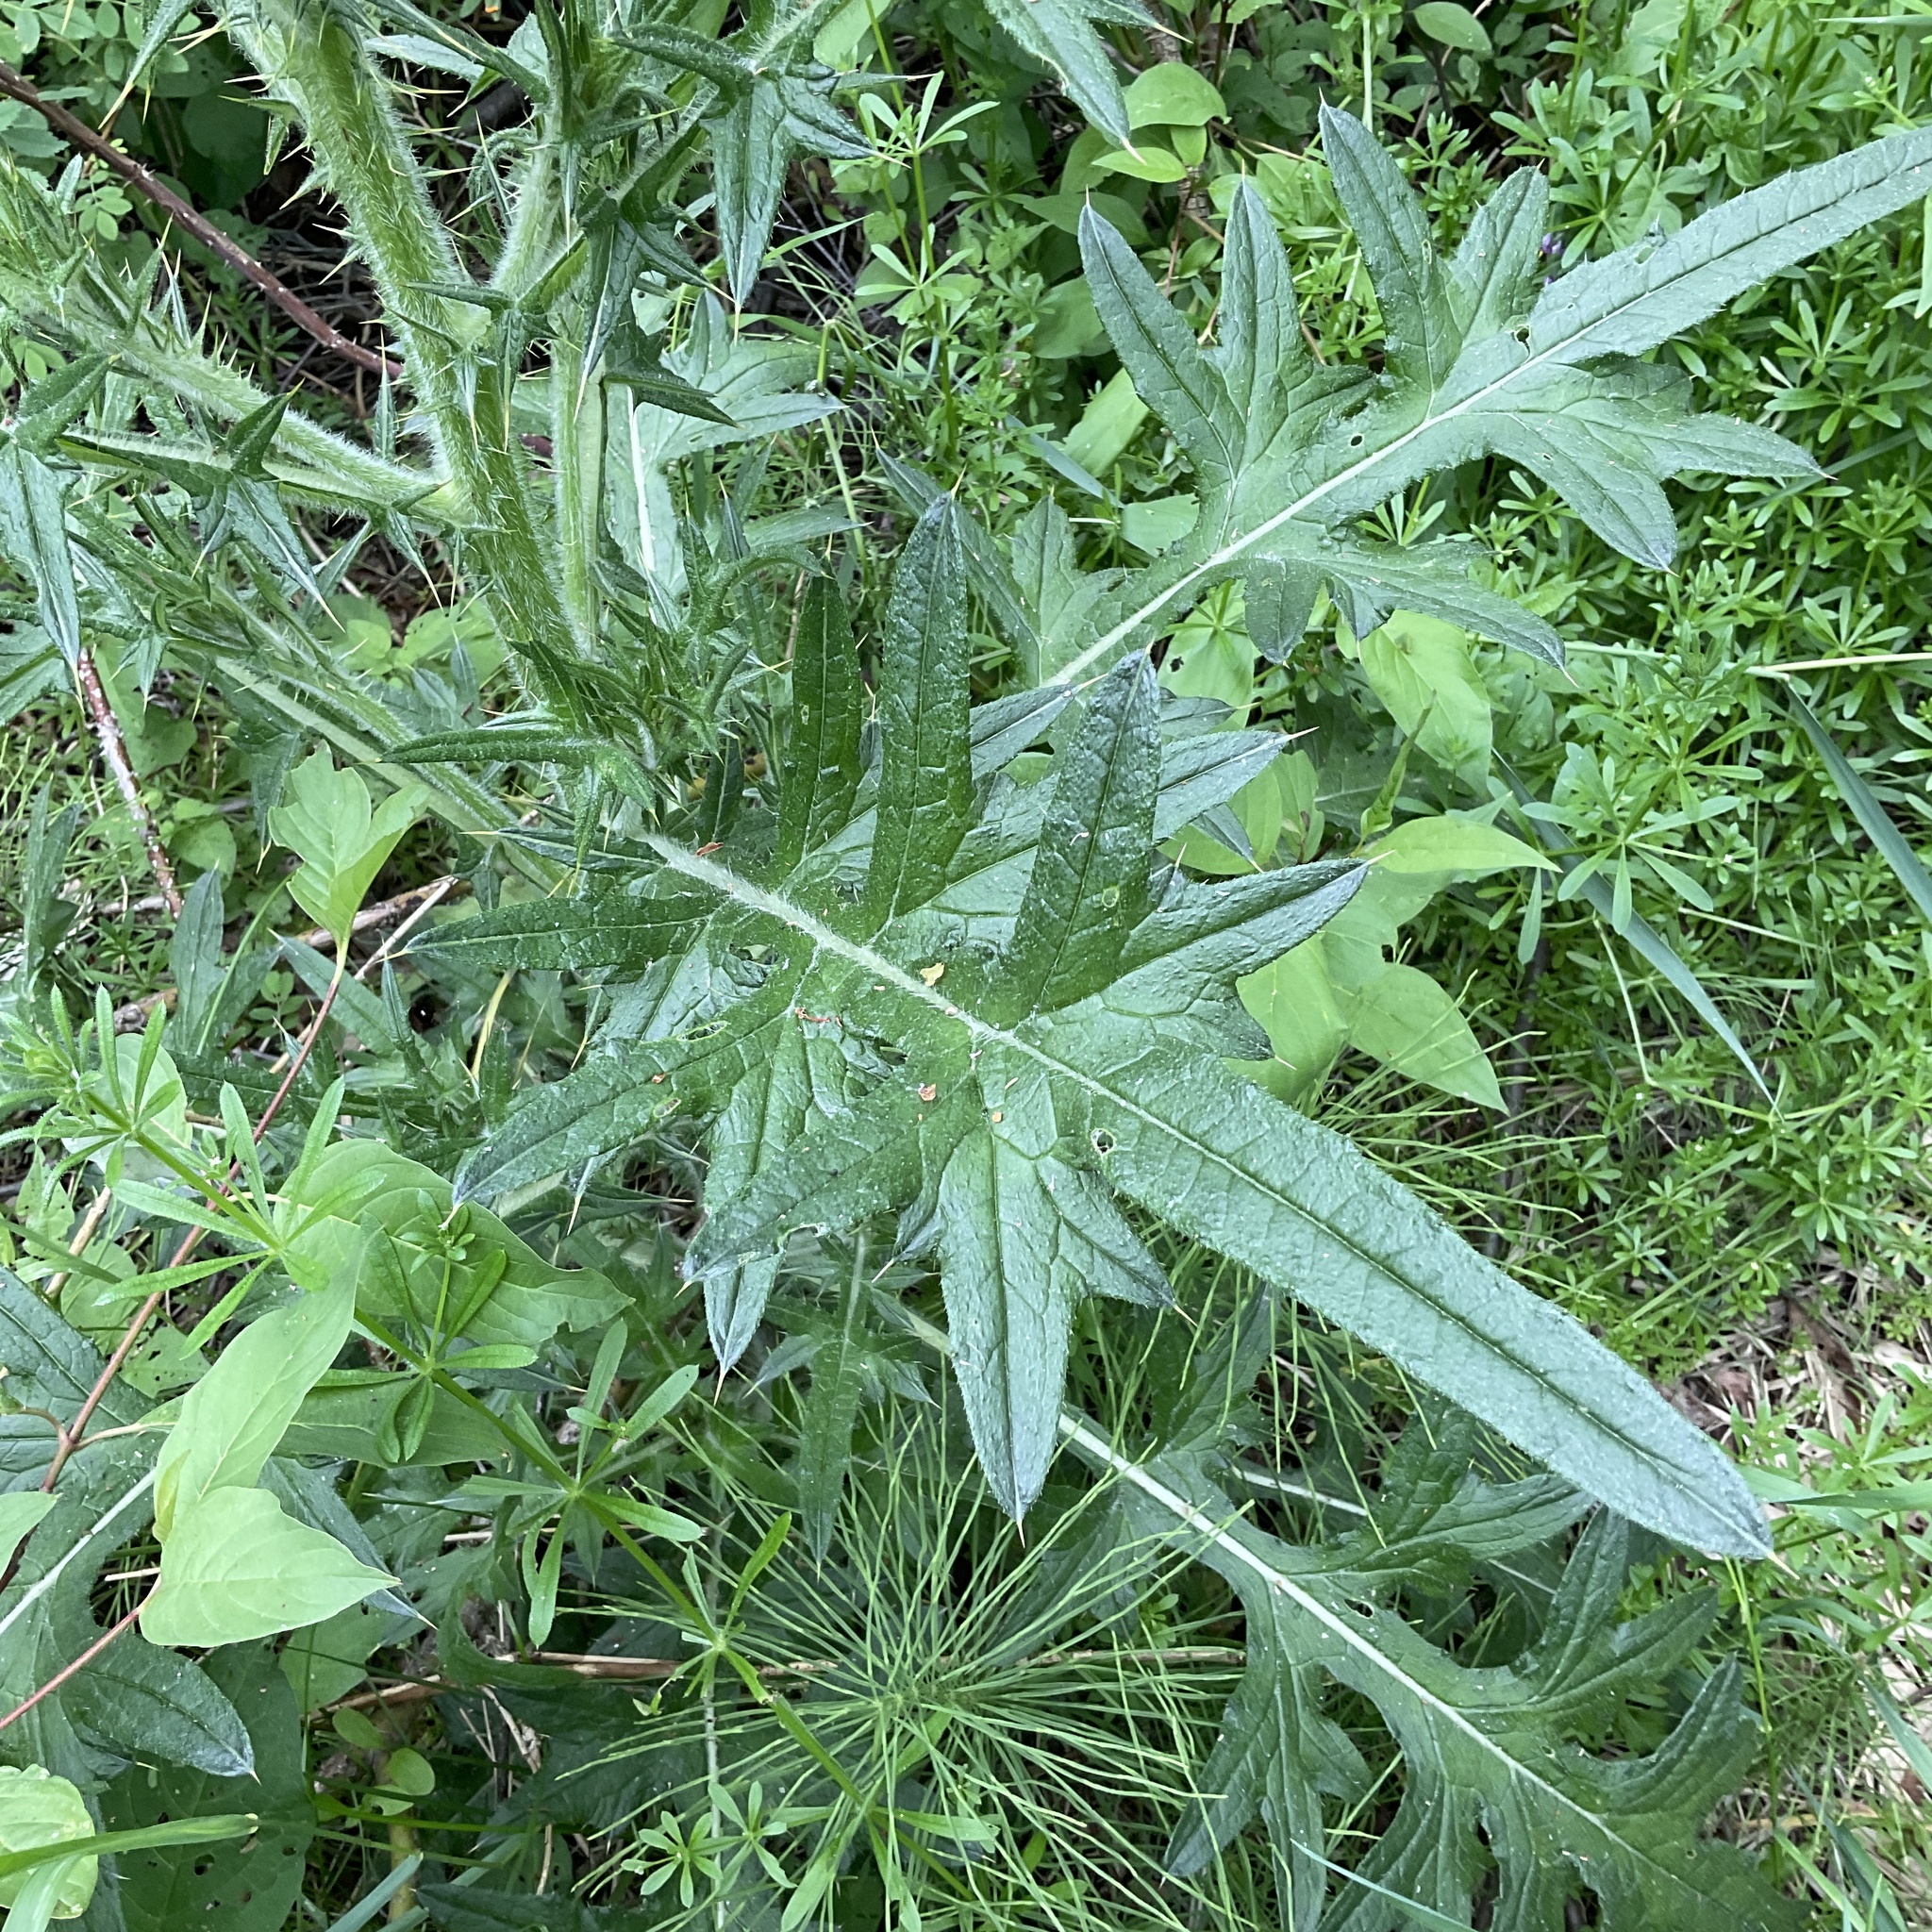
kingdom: Plantae
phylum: Tracheophyta
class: Magnoliopsida
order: Asterales
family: Asteraceae
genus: Cirsium
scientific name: Cirsium vulgare
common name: Bull thistle
